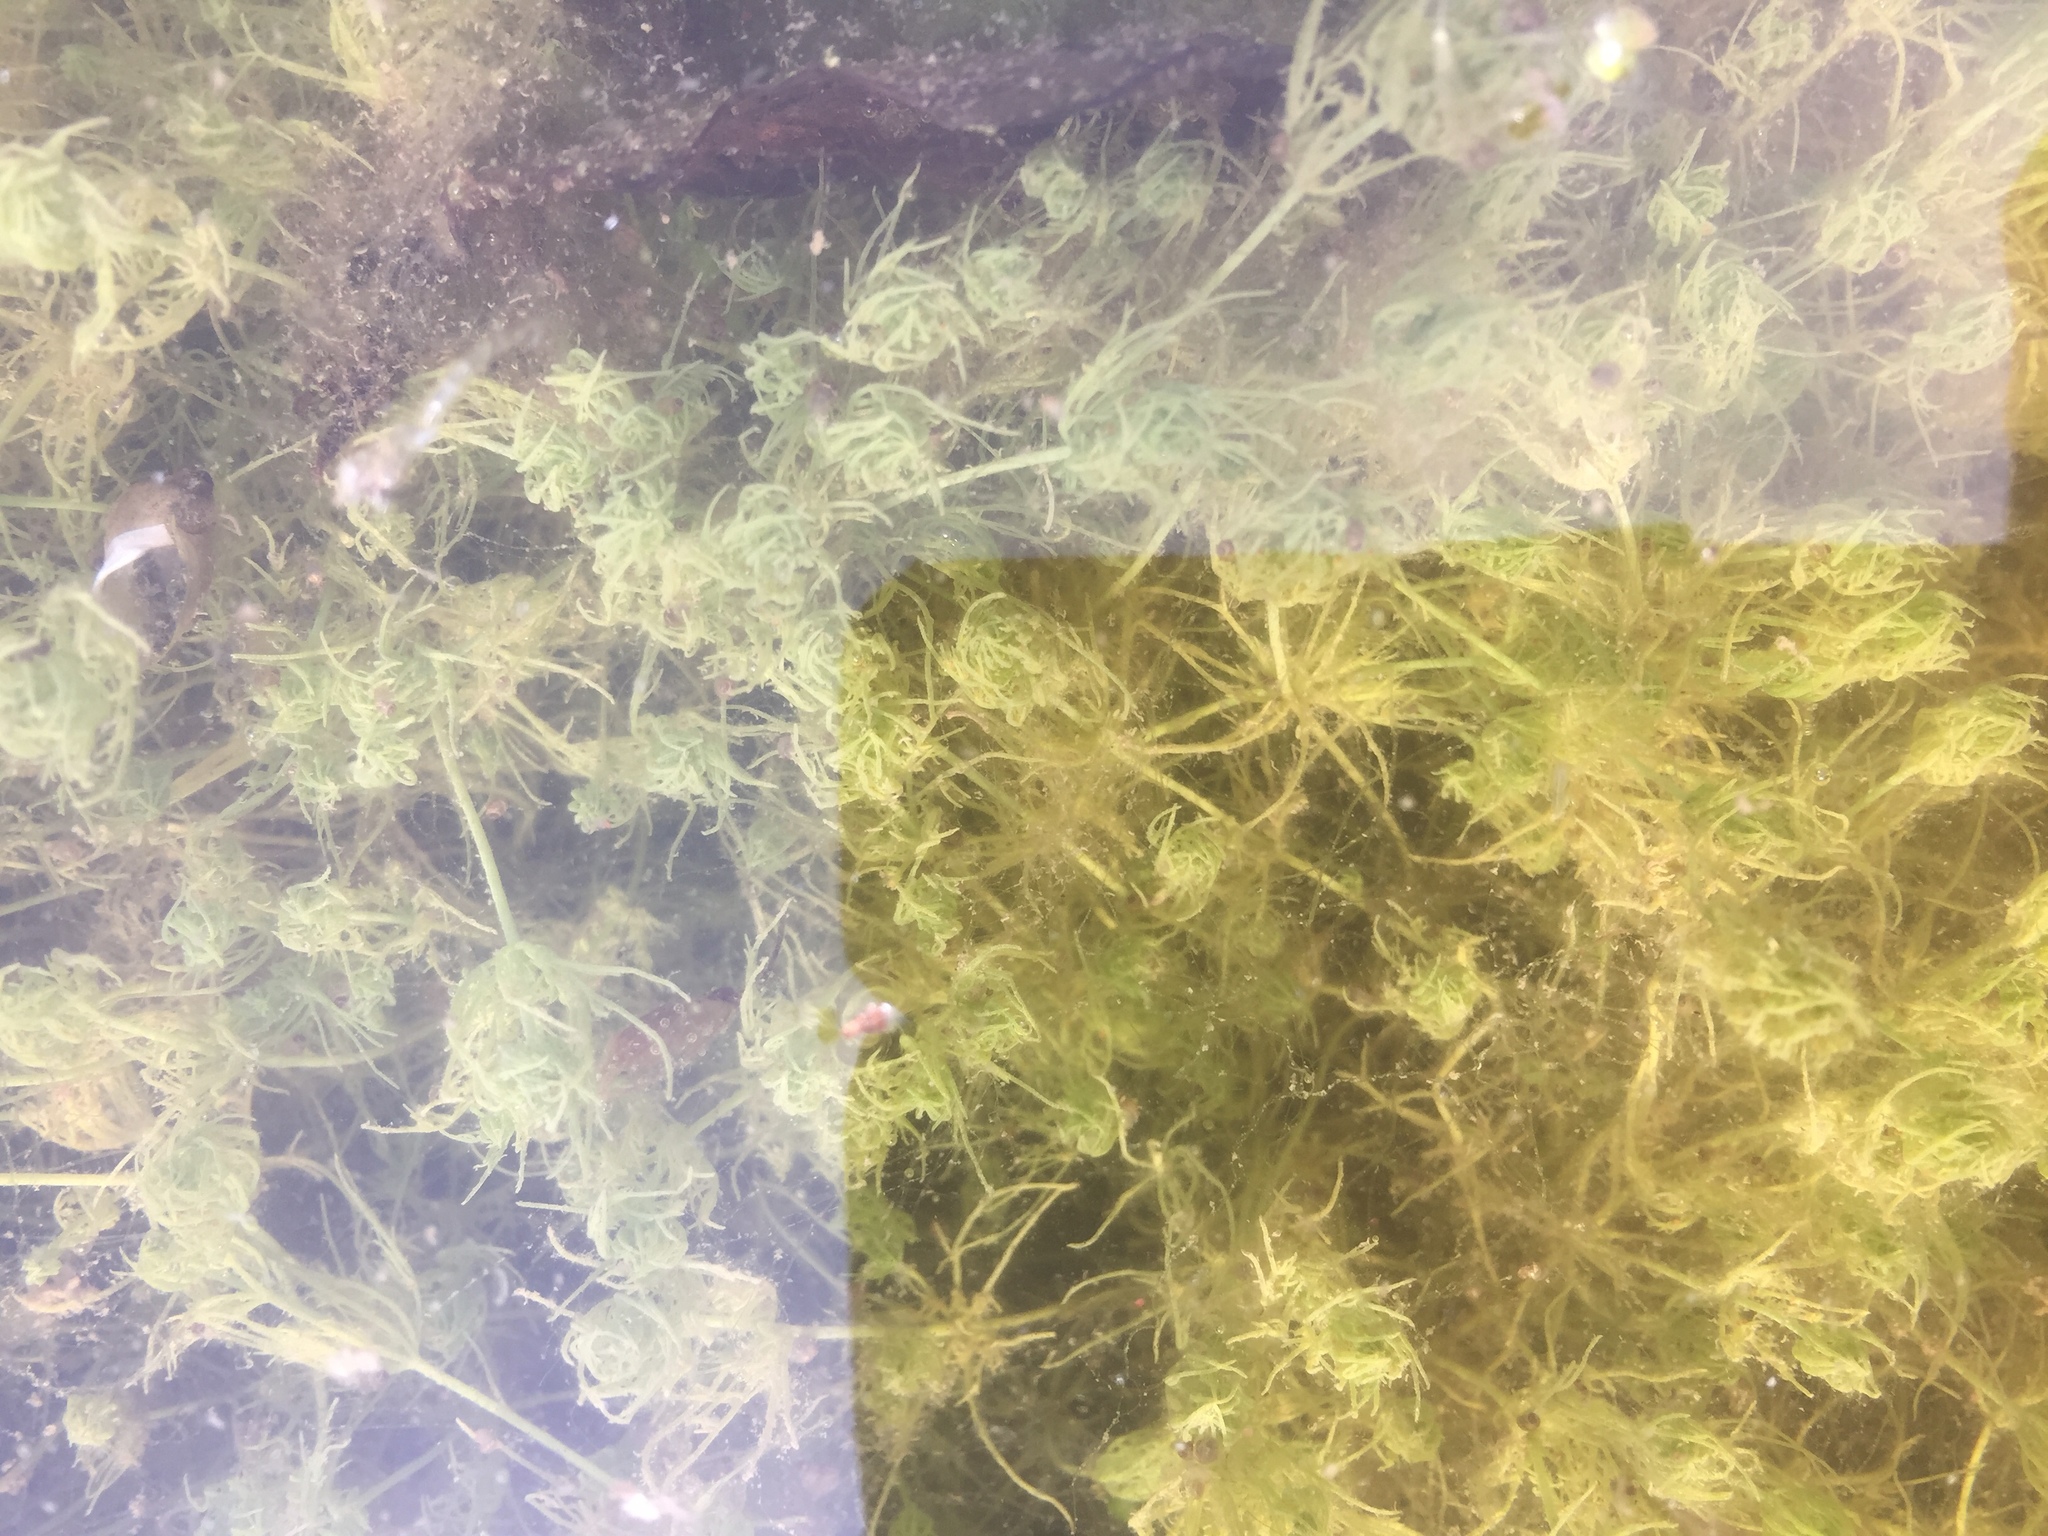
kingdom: Plantae
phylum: Charophyta
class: Charophyceae
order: Charales
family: Characeae
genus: Chara
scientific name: Chara vulgaris
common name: Common stonewort
